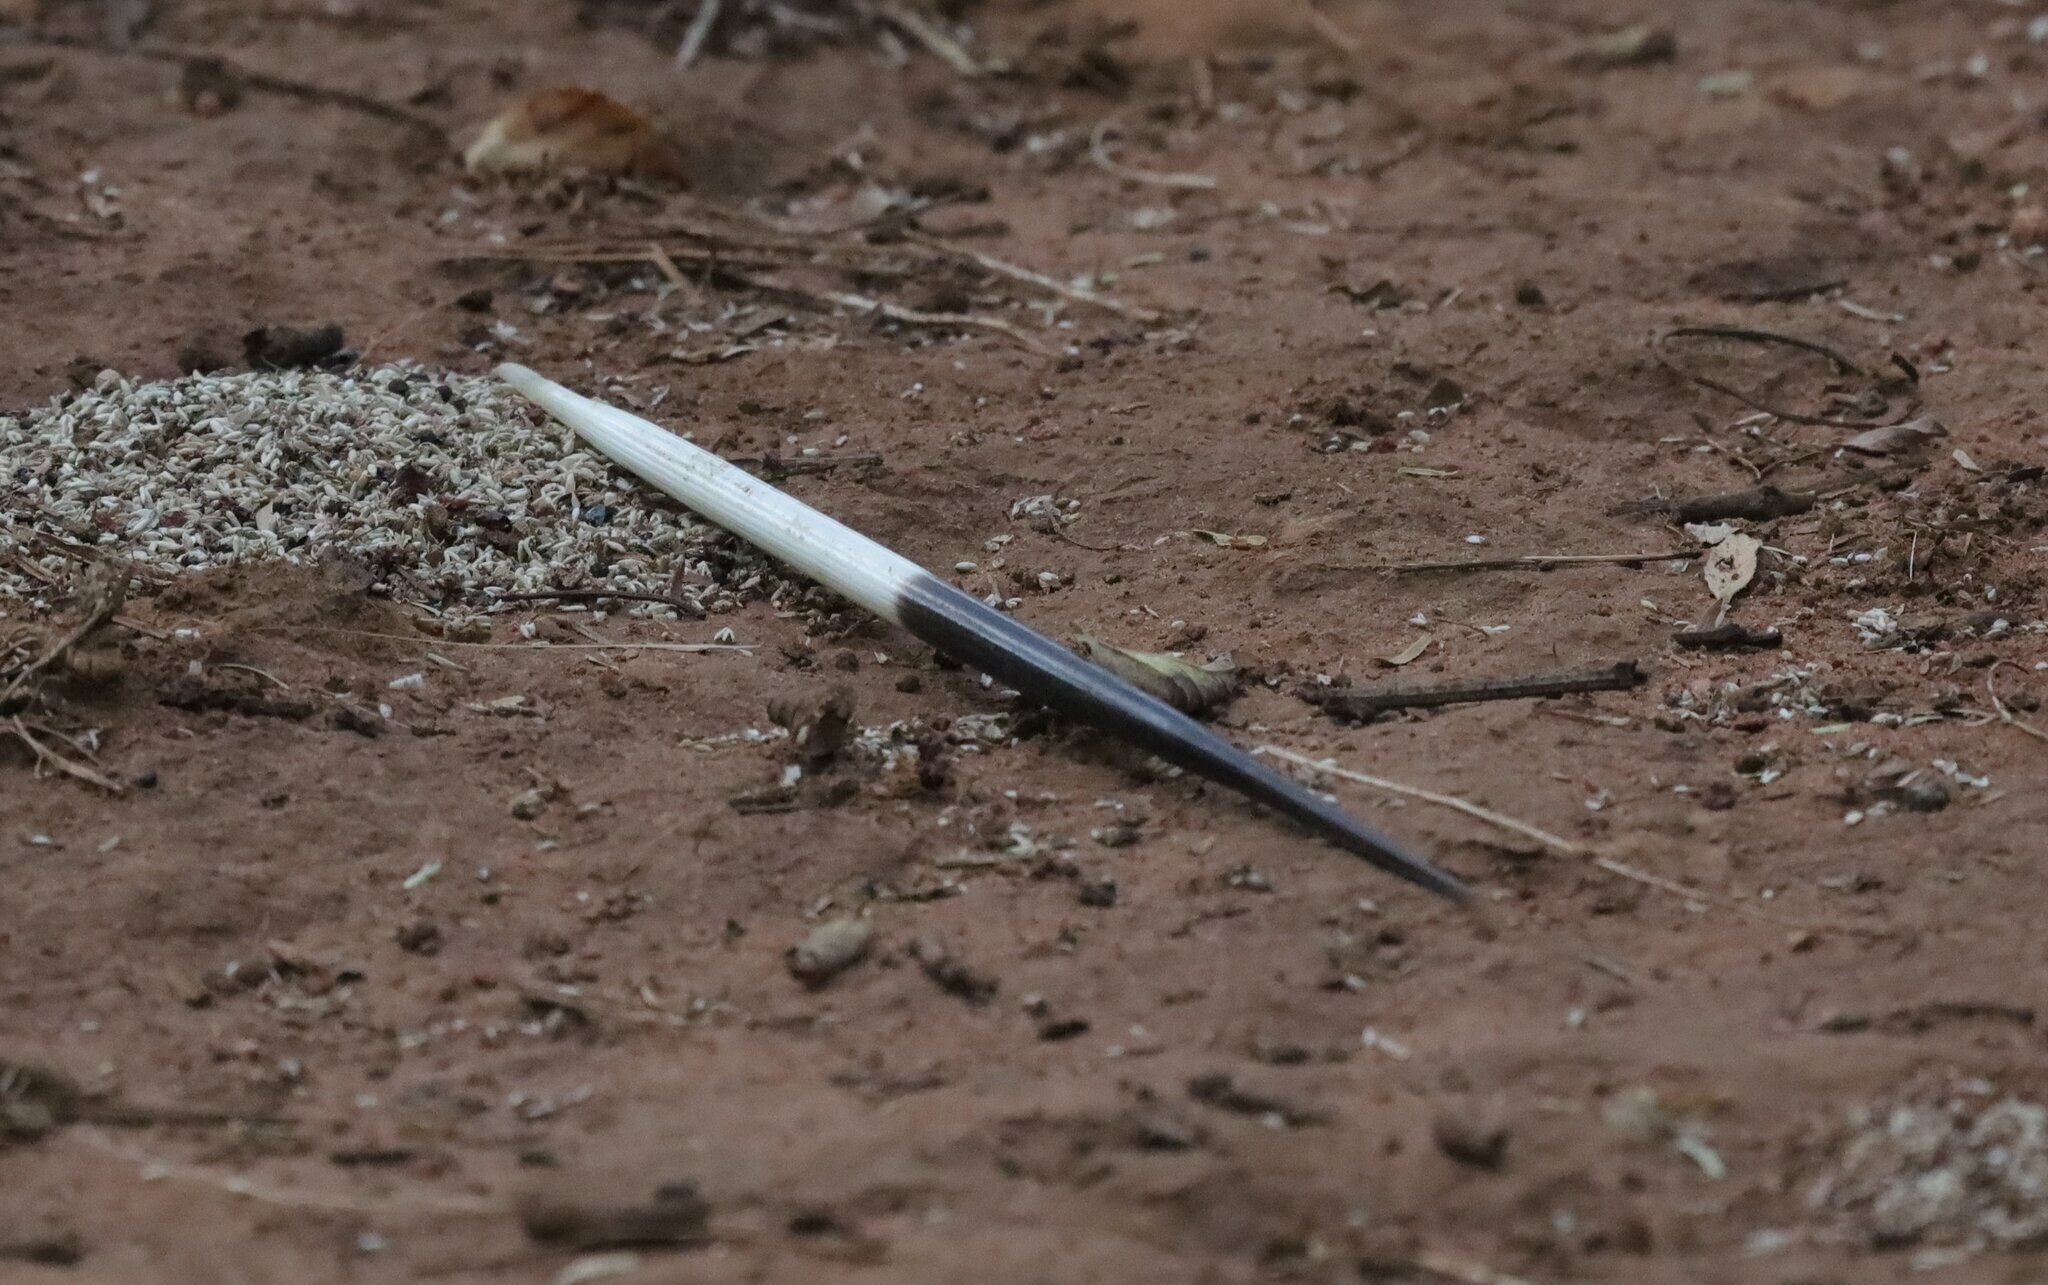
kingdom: Animalia
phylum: Chordata
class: Mammalia
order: Rodentia
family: Hystricidae
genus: Hystrix
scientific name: Hystrix africaeaustralis
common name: Cape porcupine
